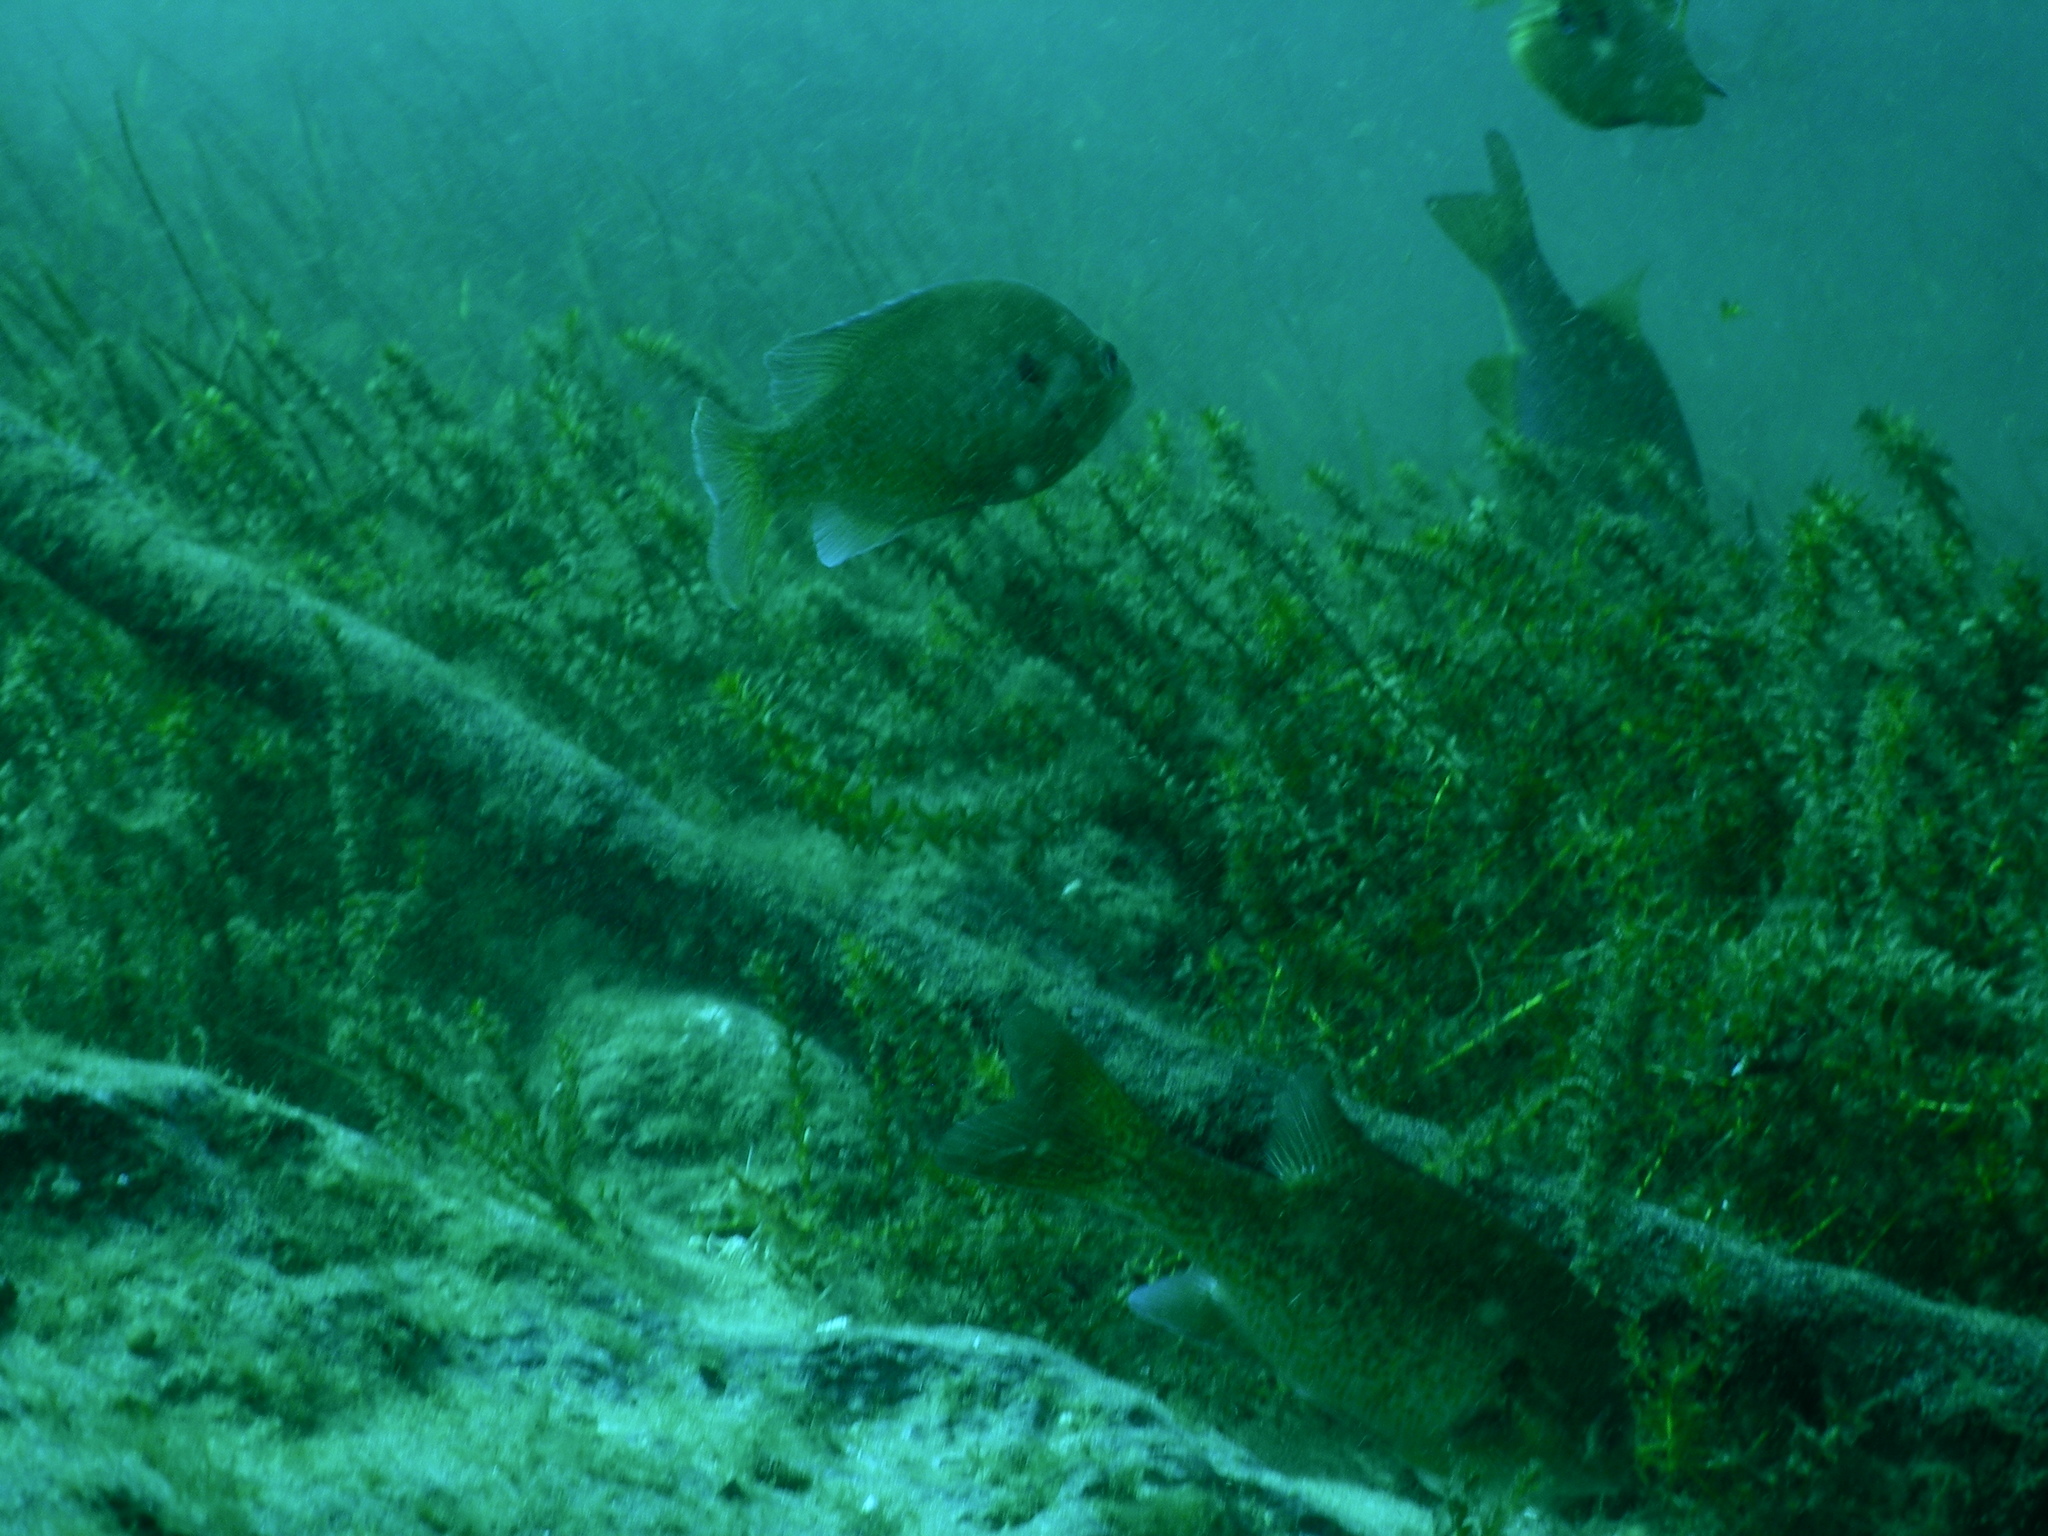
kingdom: Animalia
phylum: Chordata
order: Perciformes
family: Centrarchidae
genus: Lepomis
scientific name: Lepomis
